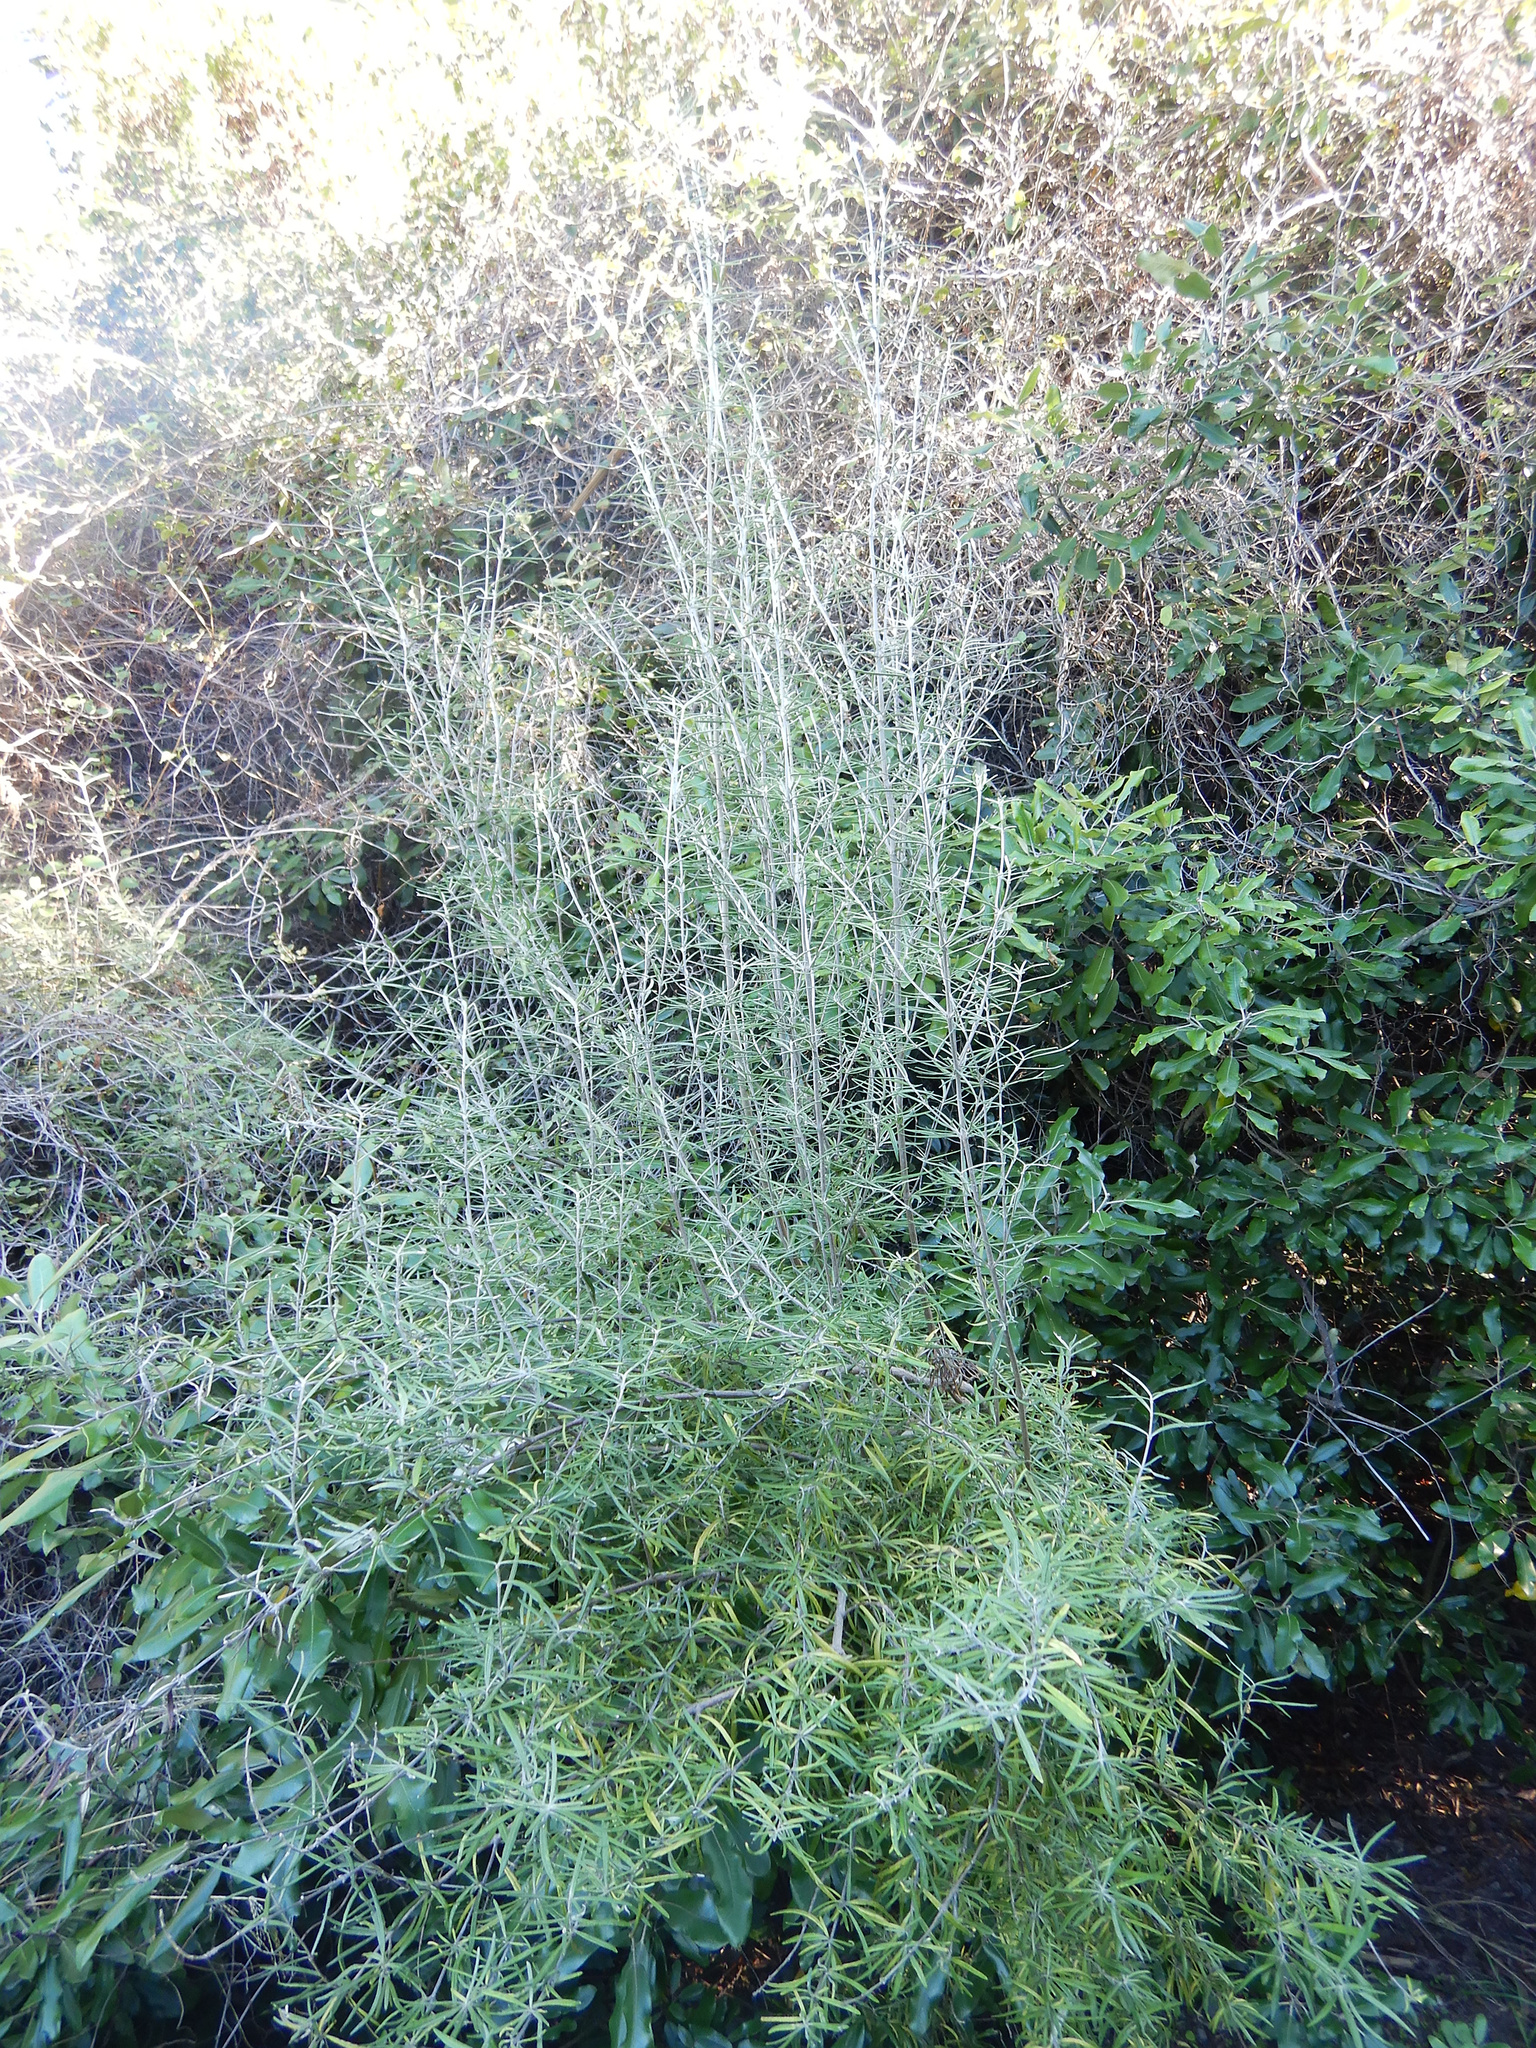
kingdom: Plantae
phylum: Tracheophyta
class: Magnoliopsida
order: Asterales
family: Asteraceae
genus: Olearia
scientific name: Olearia lineata
